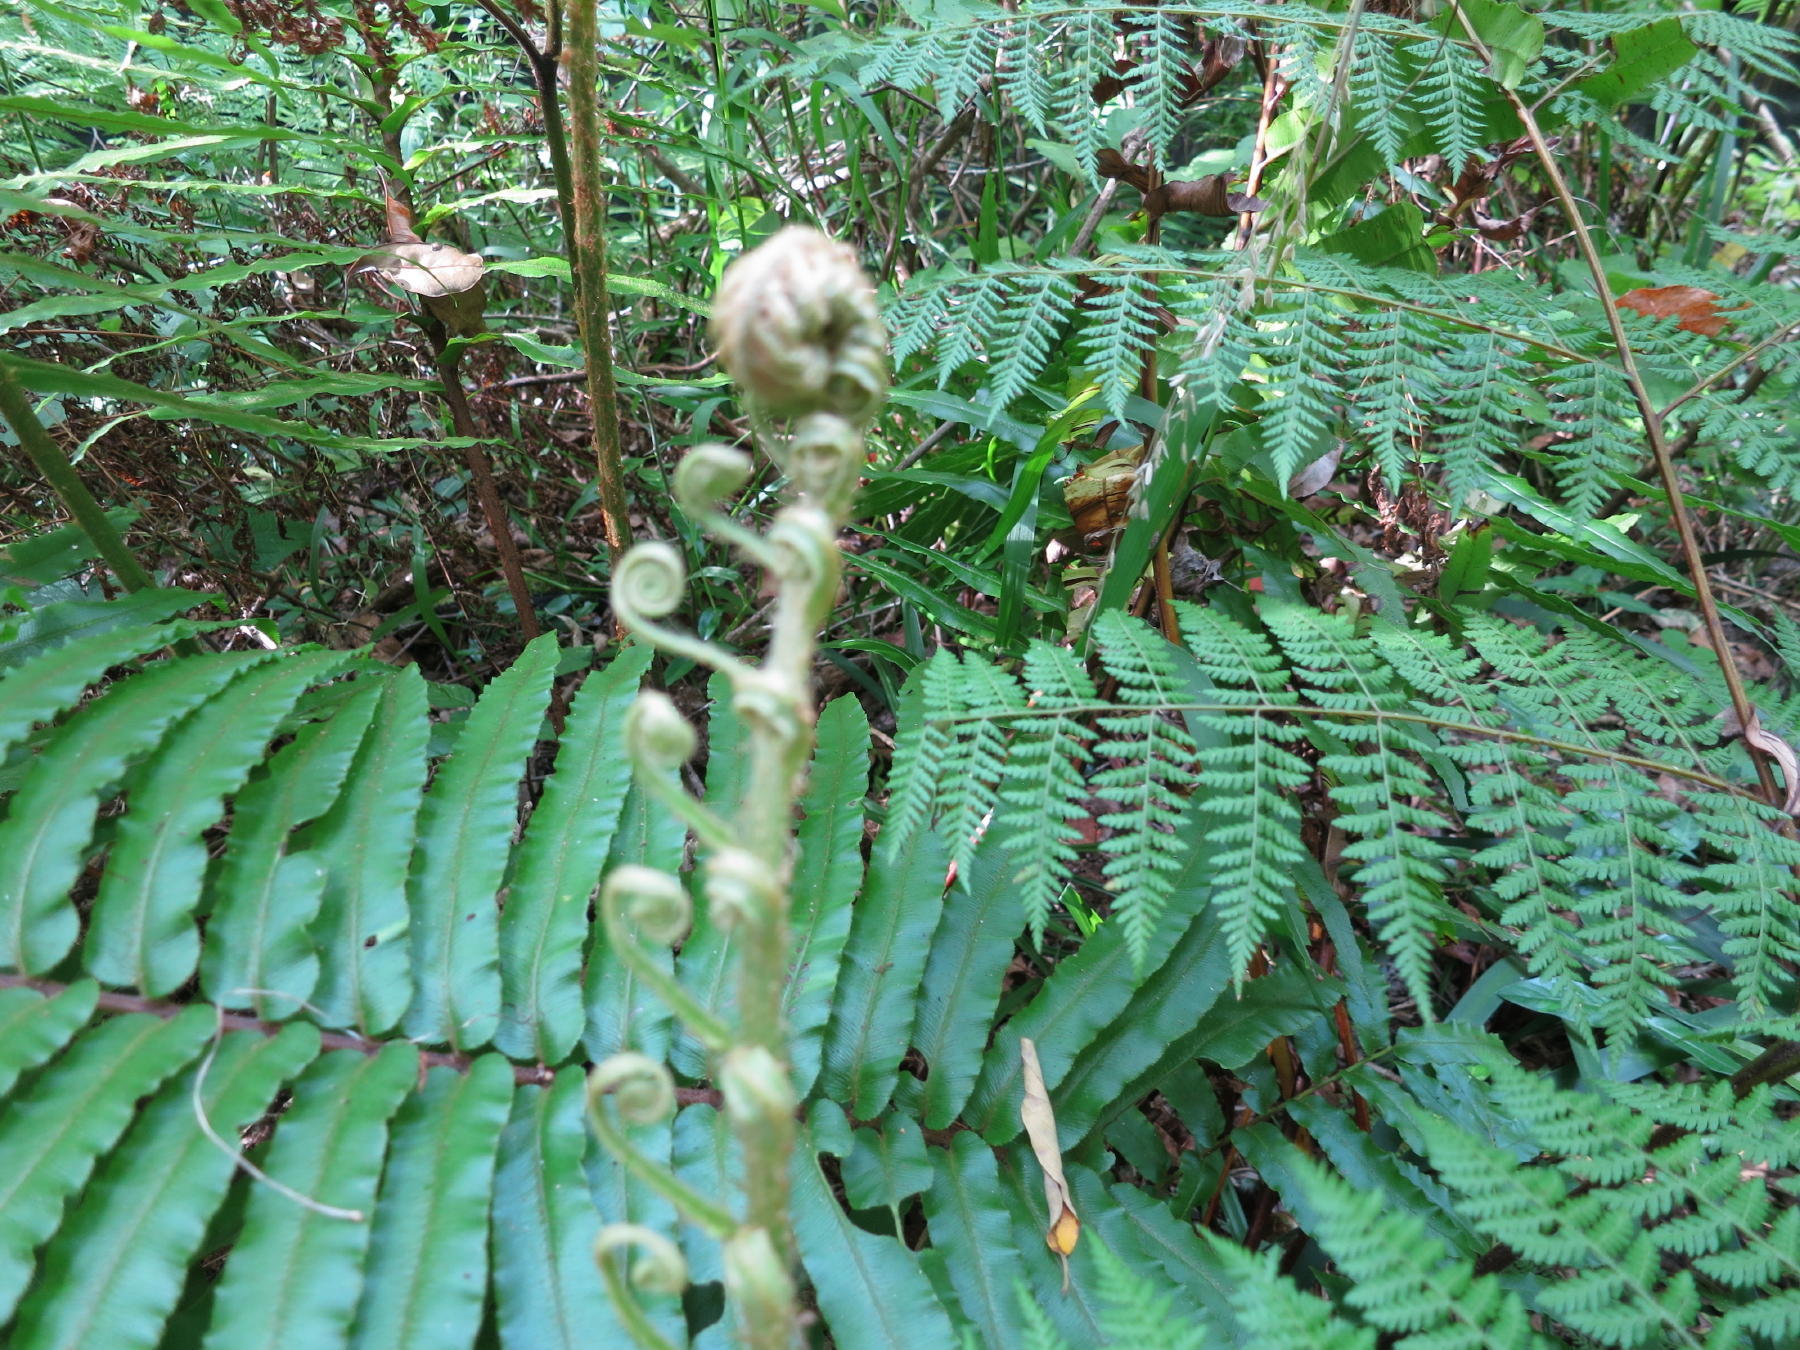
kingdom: Plantae
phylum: Tracheophyta
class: Polypodiopsida
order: Polypodiales
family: Blechnaceae
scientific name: Blechnaceae
